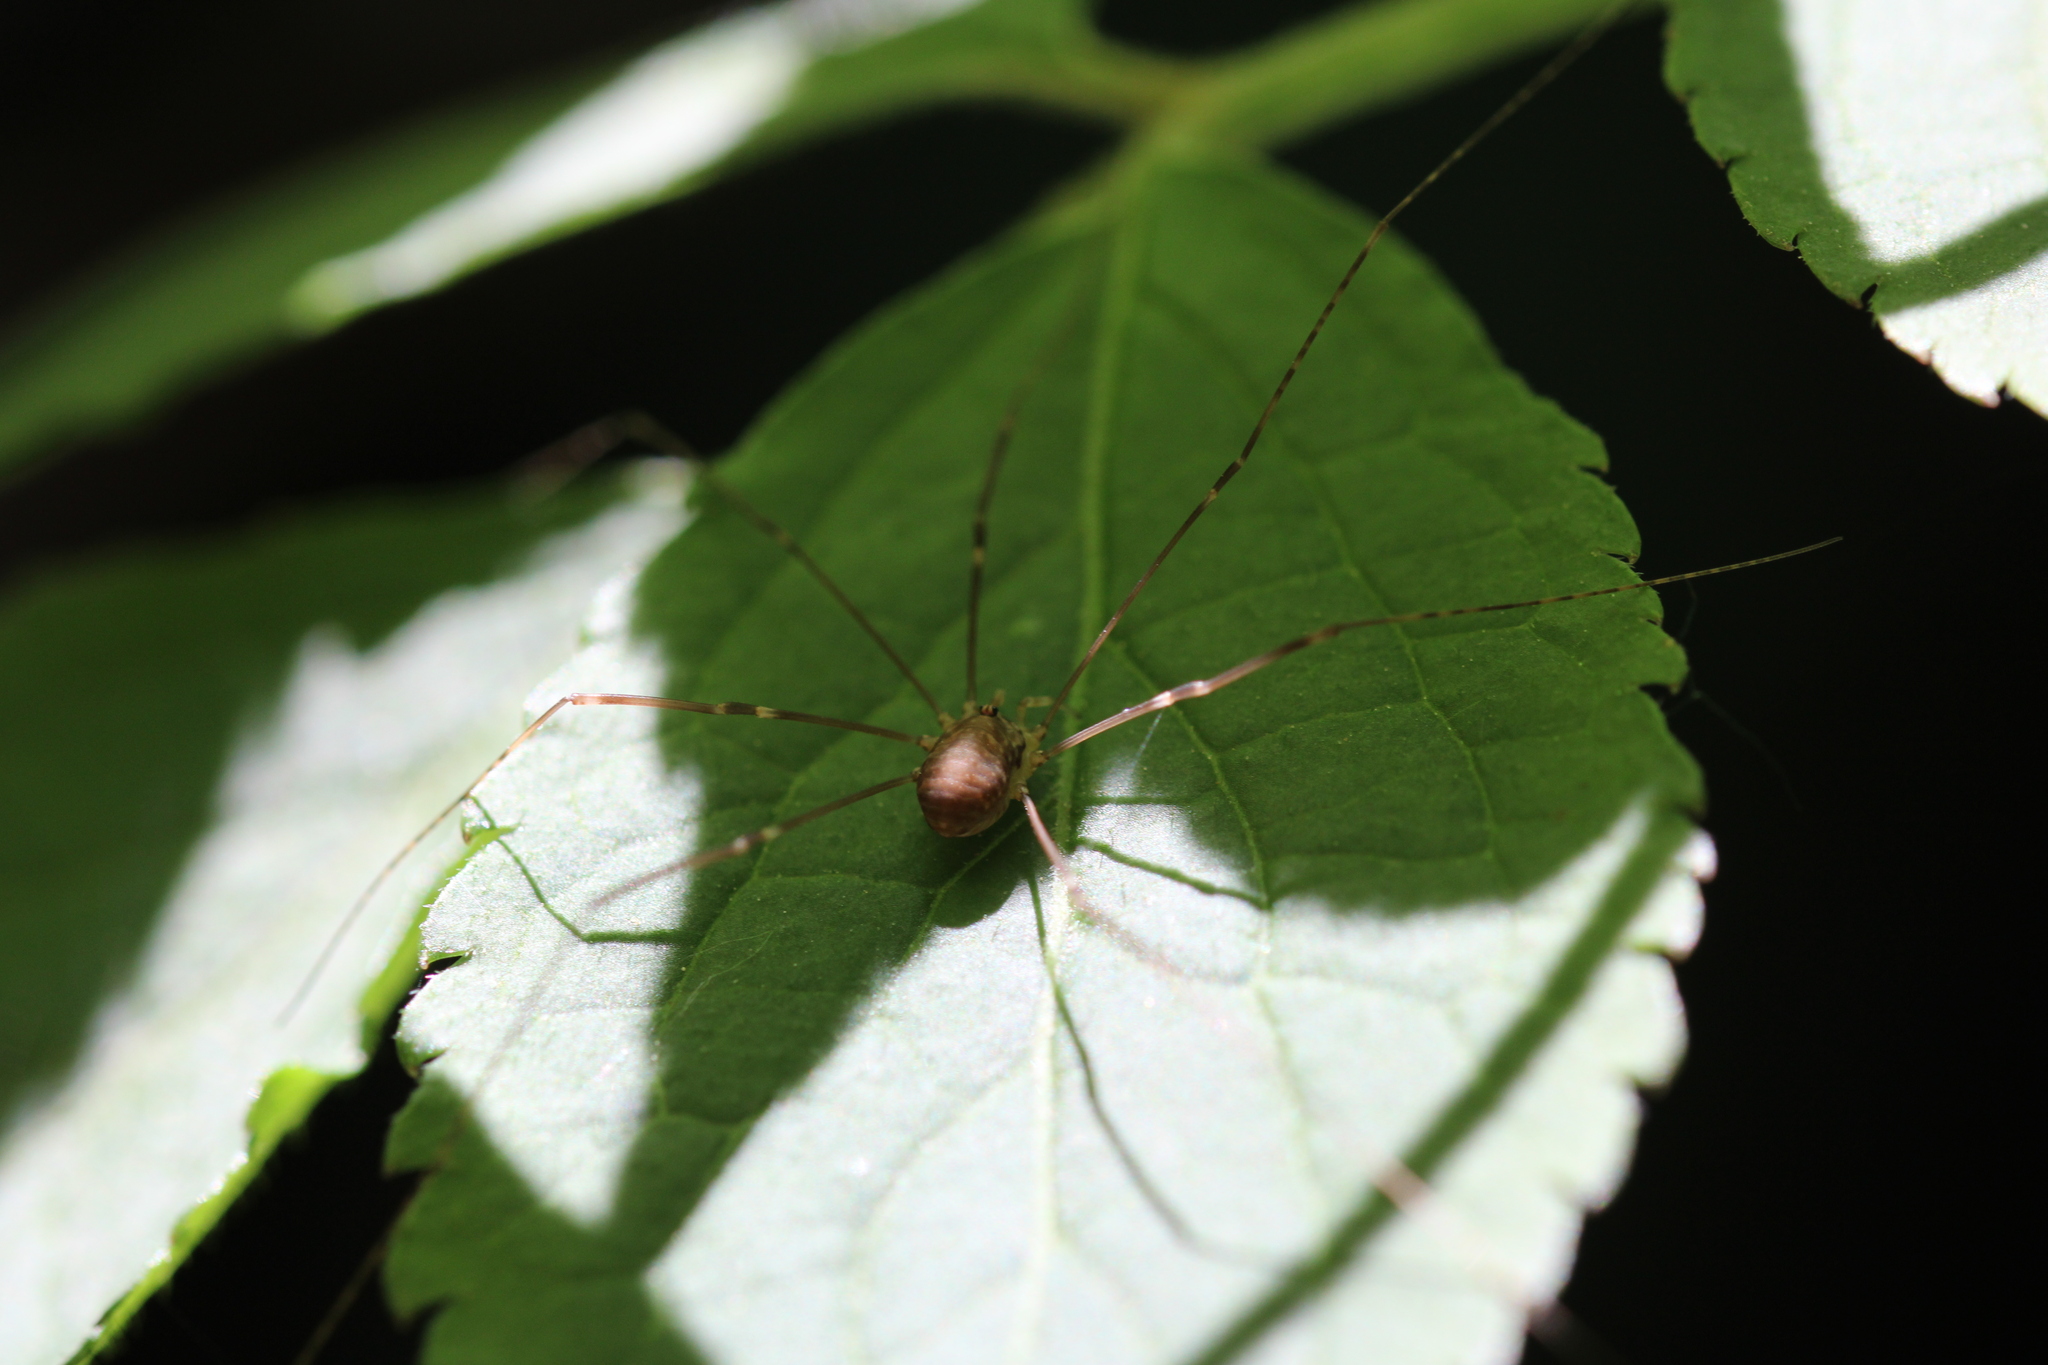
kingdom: Animalia
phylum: Arthropoda
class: Arachnida
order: Opiliones
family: Sclerosomatidae
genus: Leiobunum
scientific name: Leiobunum blackwalli
